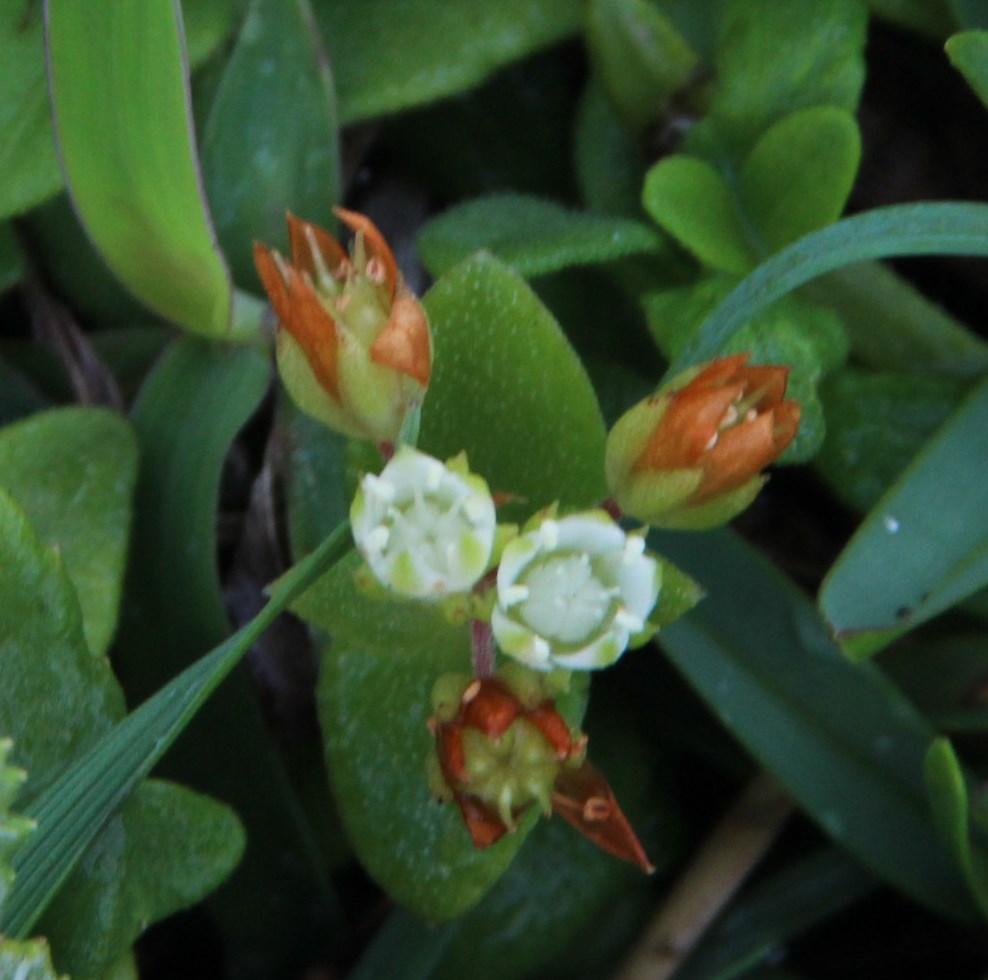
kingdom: Plantae
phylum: Tracheophyta
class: Magnoliopsida
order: Saxifragales
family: Crassulaceae
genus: Crassula
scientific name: Crassula pellucida
